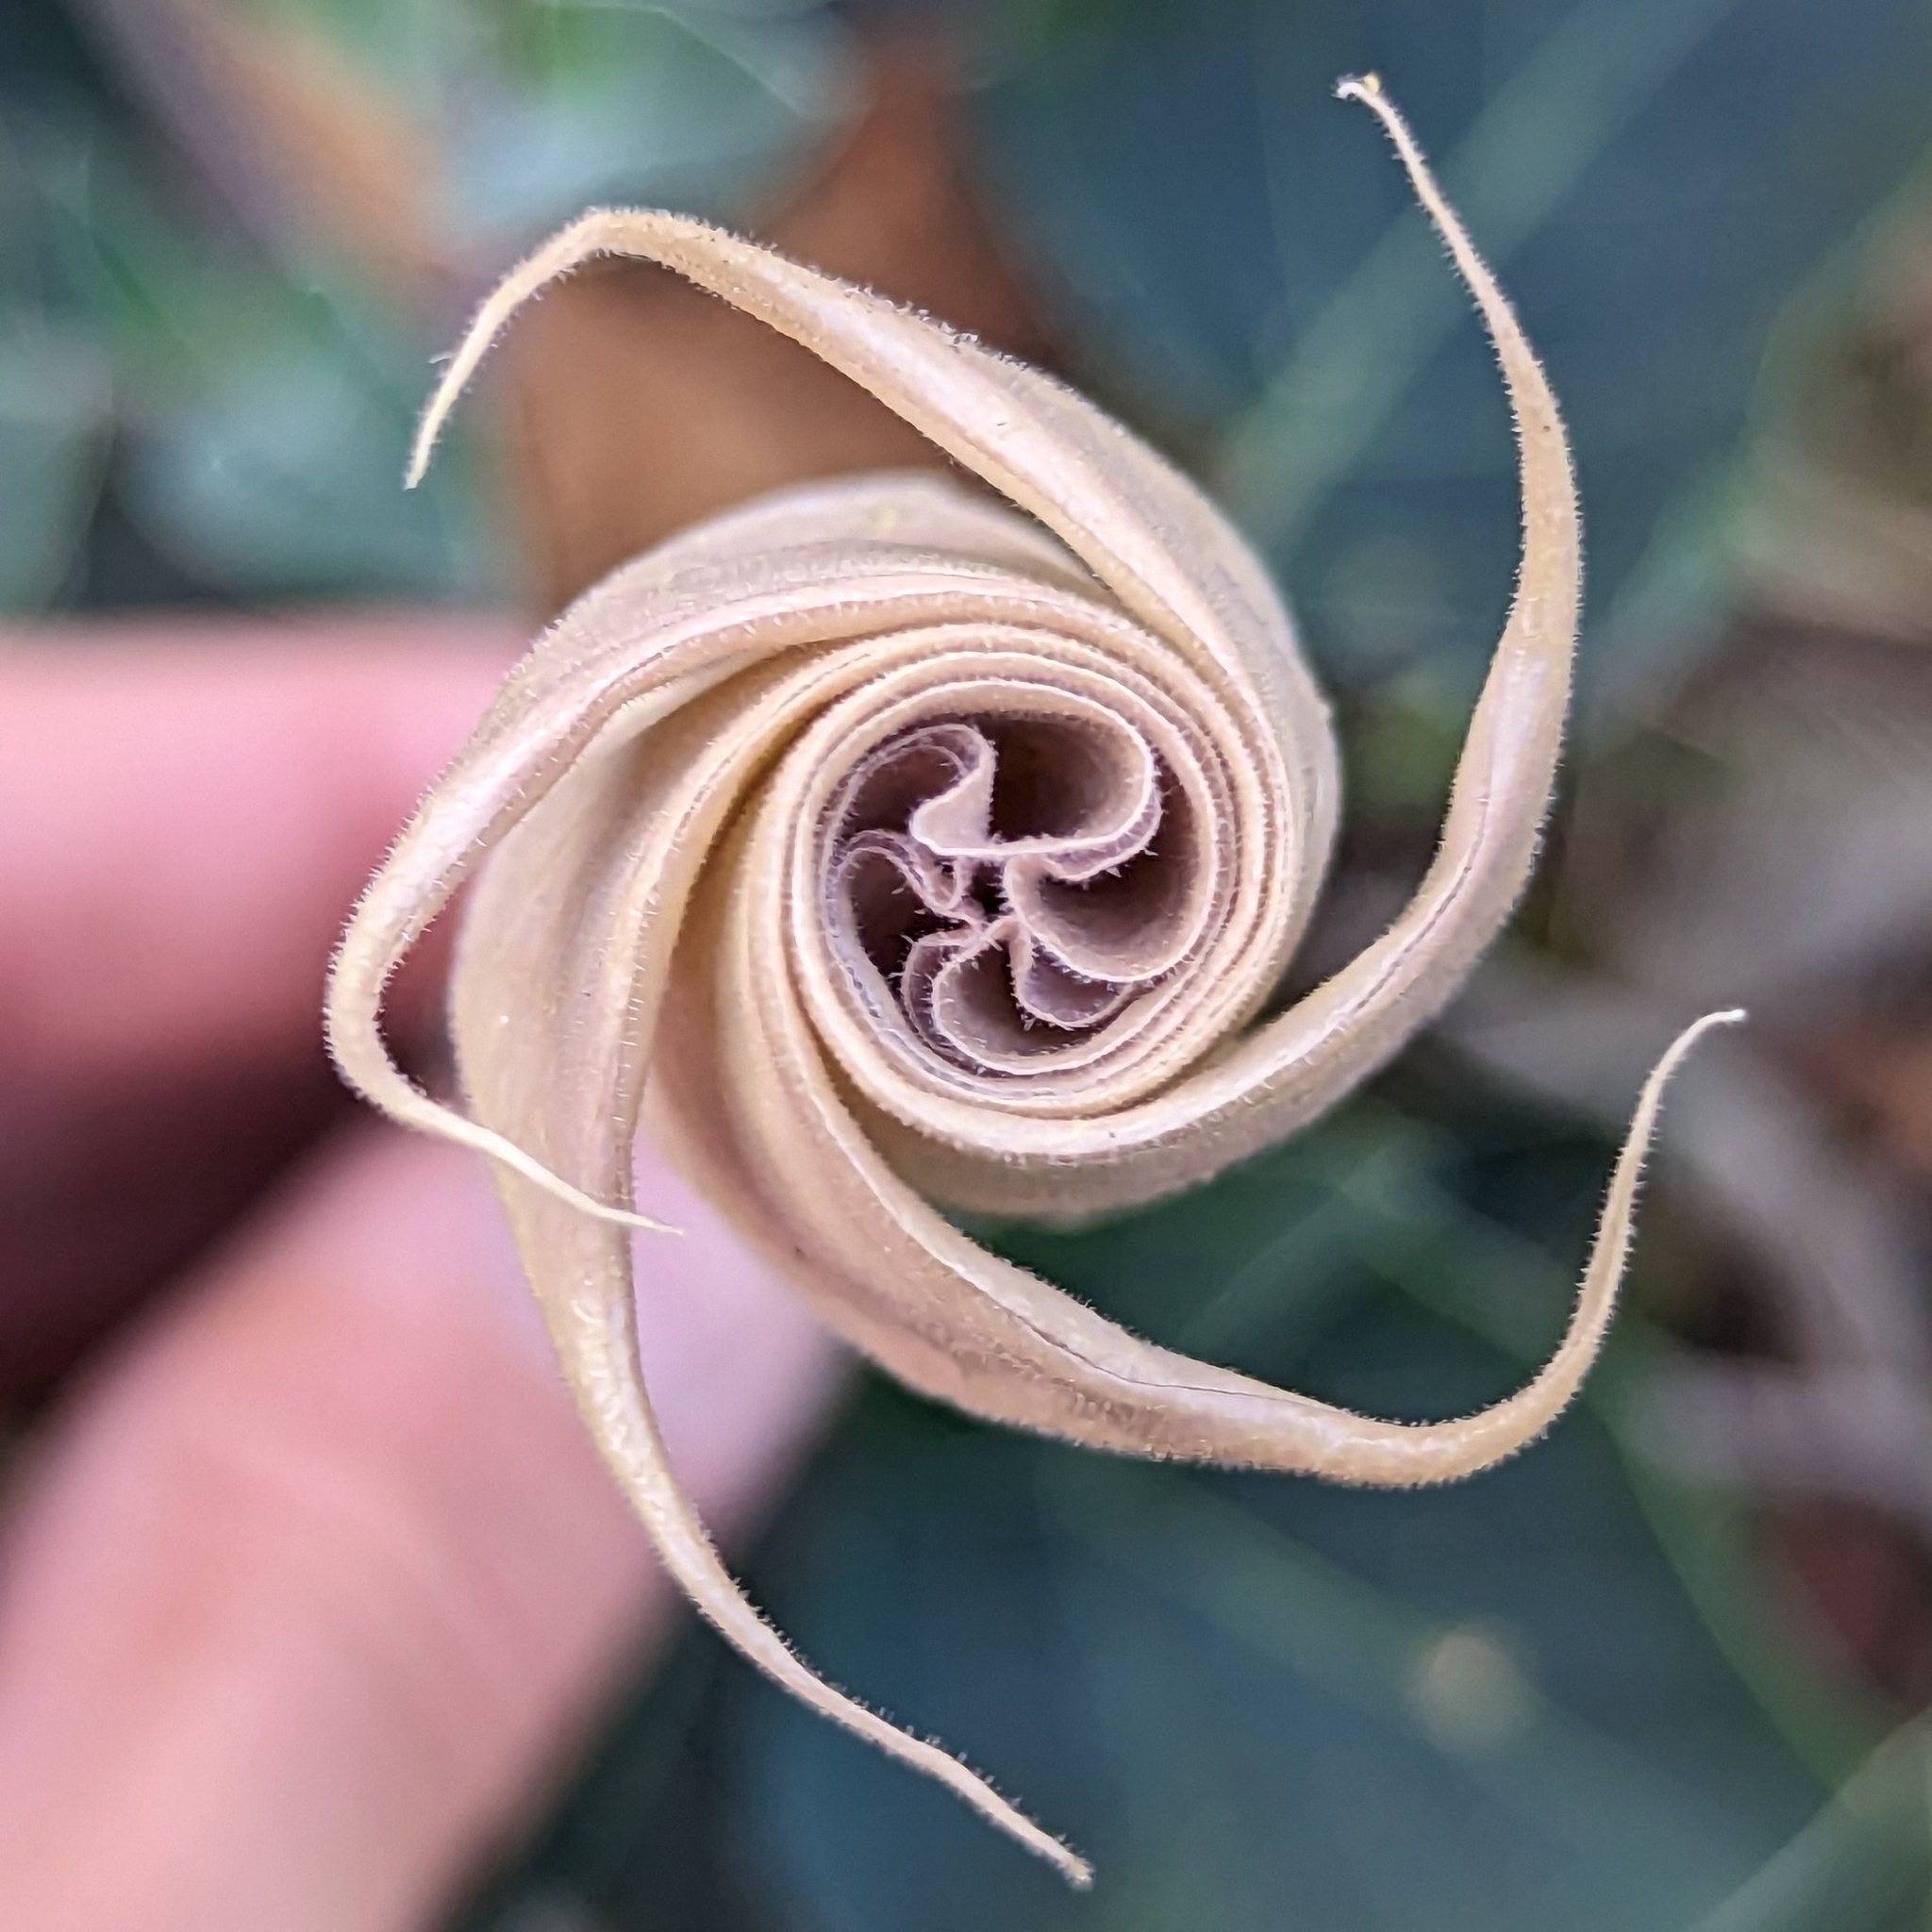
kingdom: Plantae
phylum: Tracheophyta
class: Magnoliopsida
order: Solanales
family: Solanaceae
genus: Datura
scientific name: Datura wrightii
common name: Sacred thorn-apple
